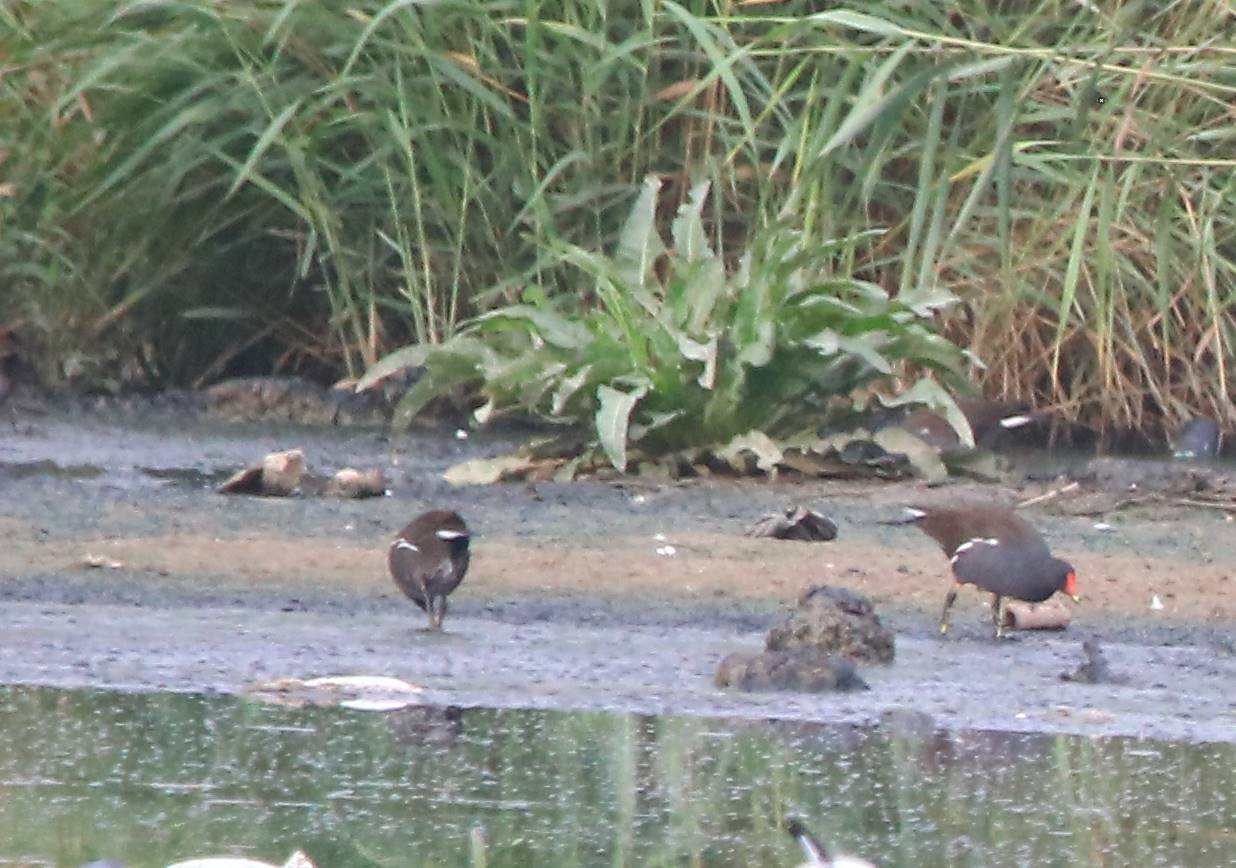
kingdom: Animalia
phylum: Chordata
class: Aves
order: Gruiformes
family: Rallidae
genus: Gallinula
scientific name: Gallinula chloropus
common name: Common moorhen
